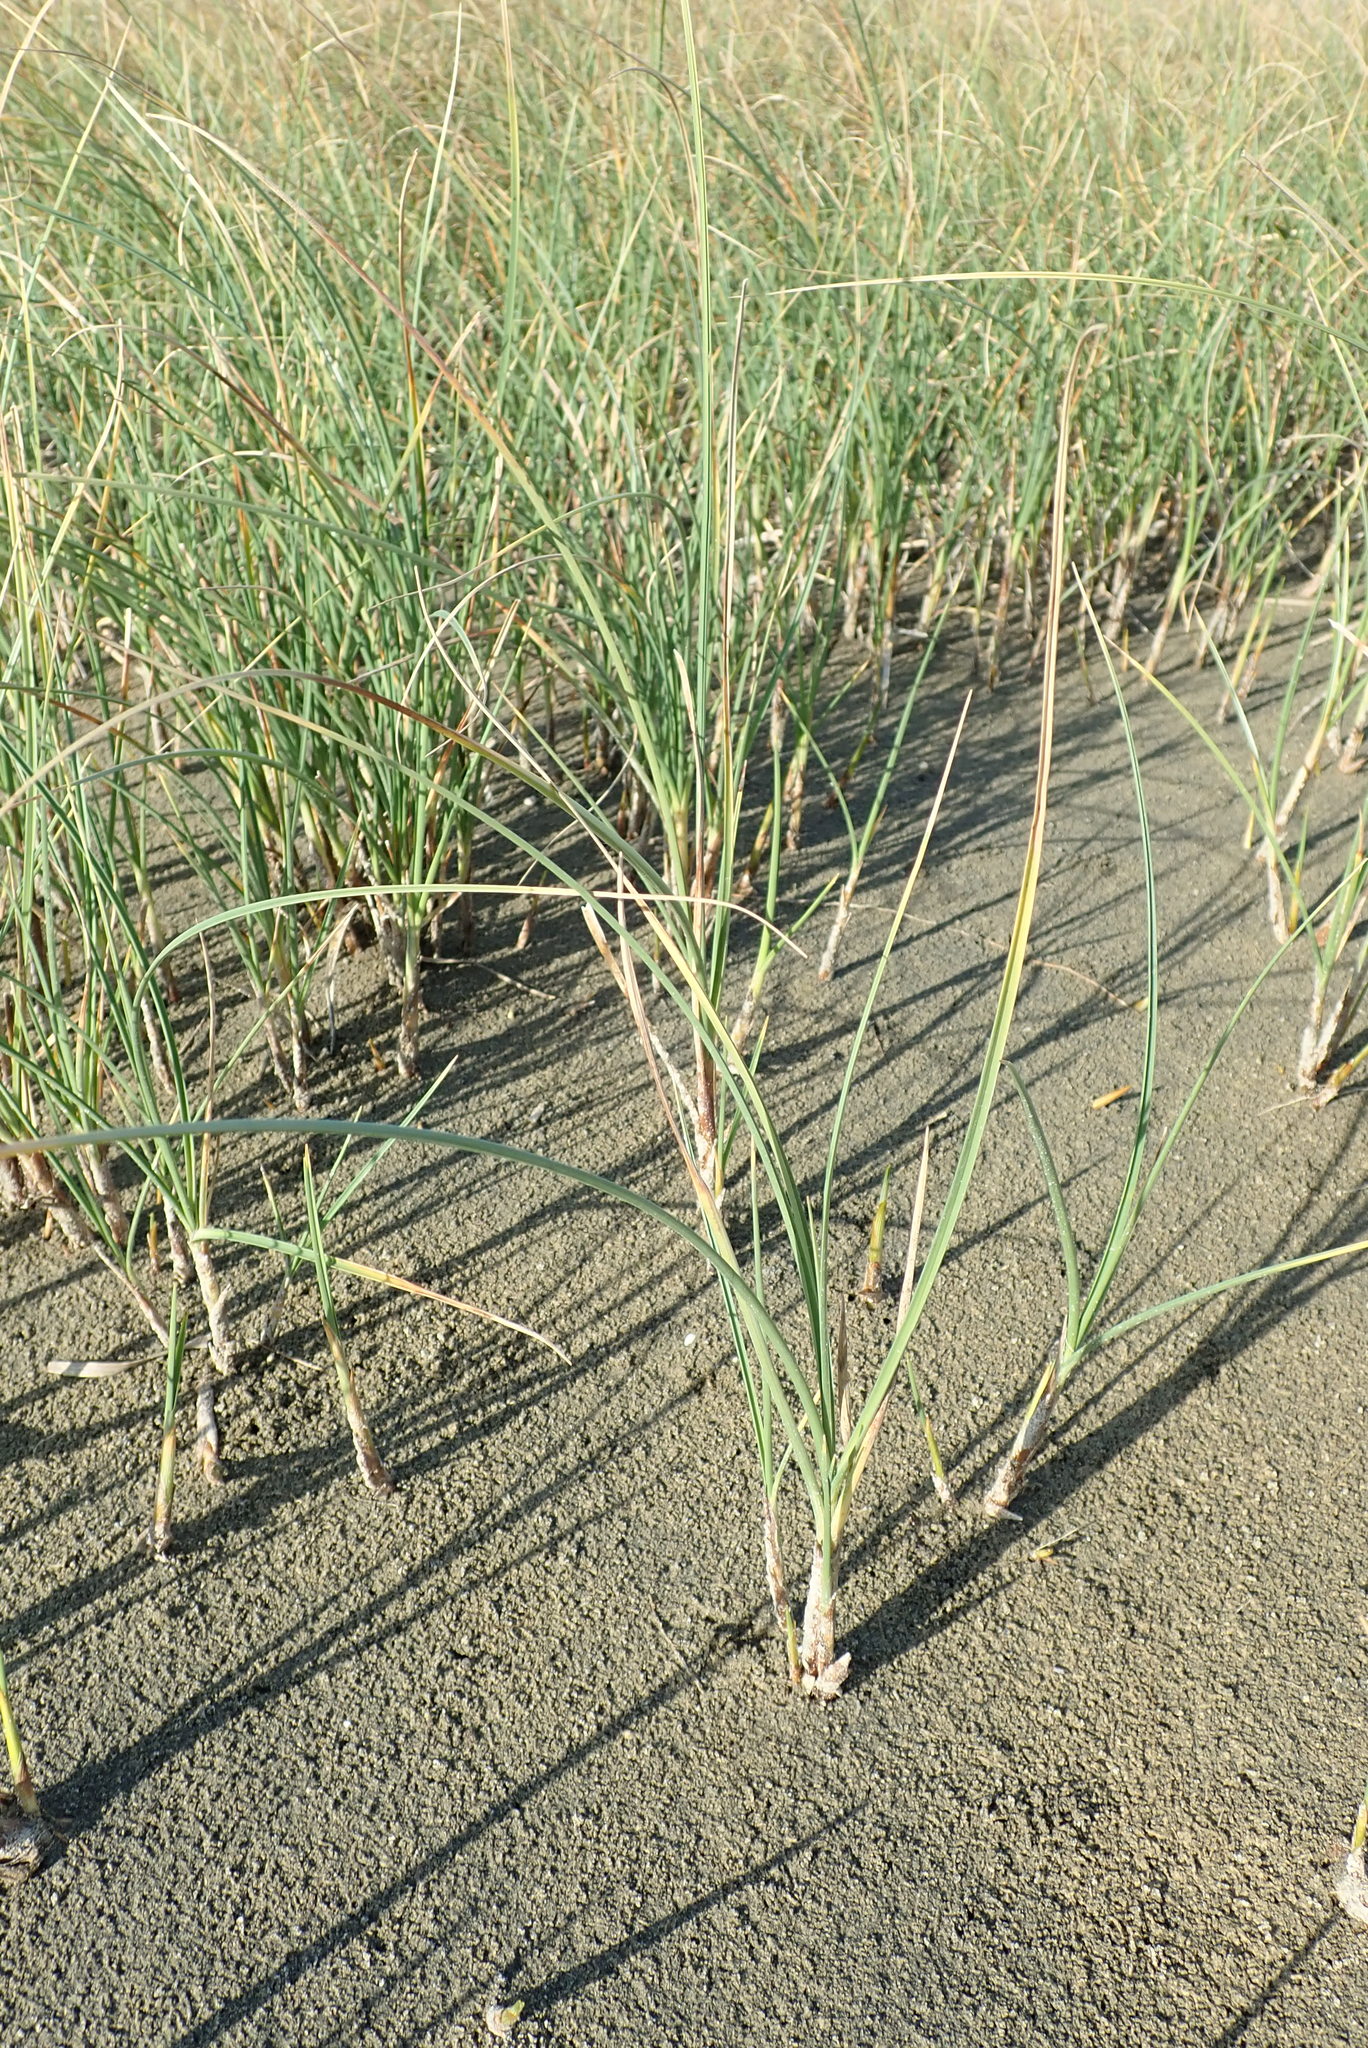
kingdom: Plantae
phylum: Tracheophyta
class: Liliopsida
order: Poales
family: Cyperaceae
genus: Carex
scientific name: Carex pumila
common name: Dwarf sedge
